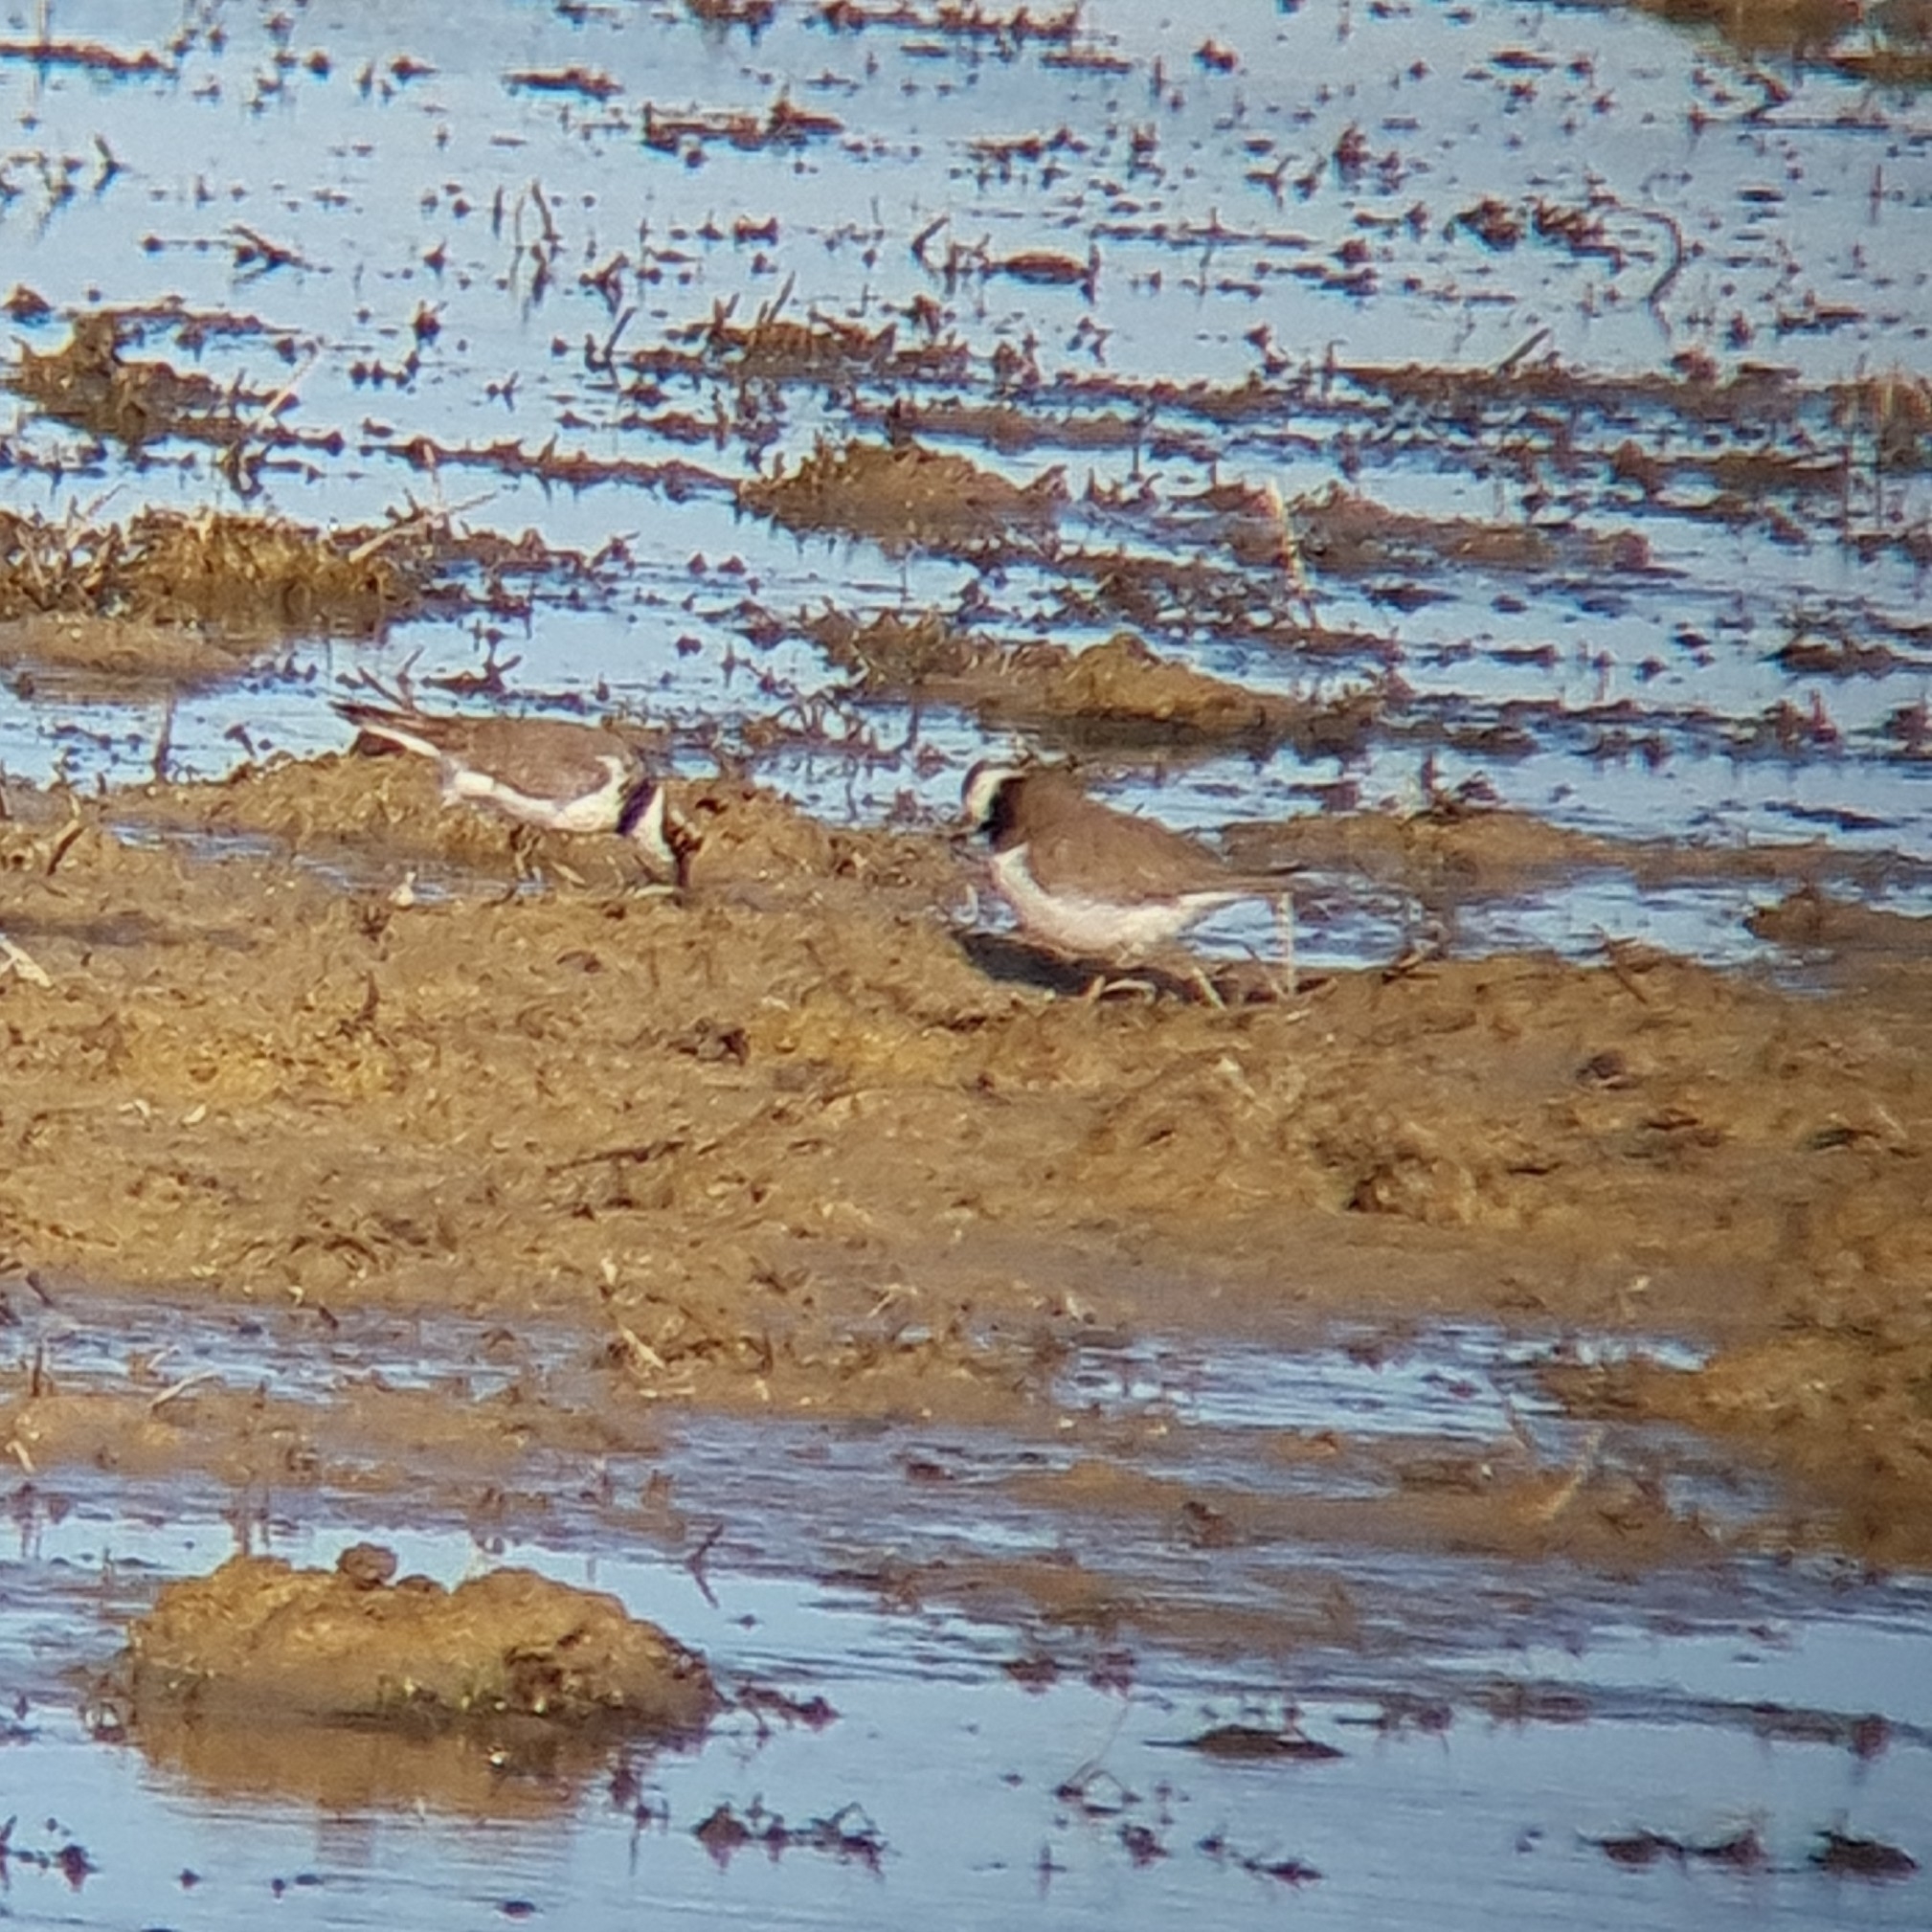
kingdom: Animalia
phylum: Chordata
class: Aves
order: Charadriiformes
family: Charadriidae
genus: Charadrius
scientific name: Charadrius dubius
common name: Little ringed plover
